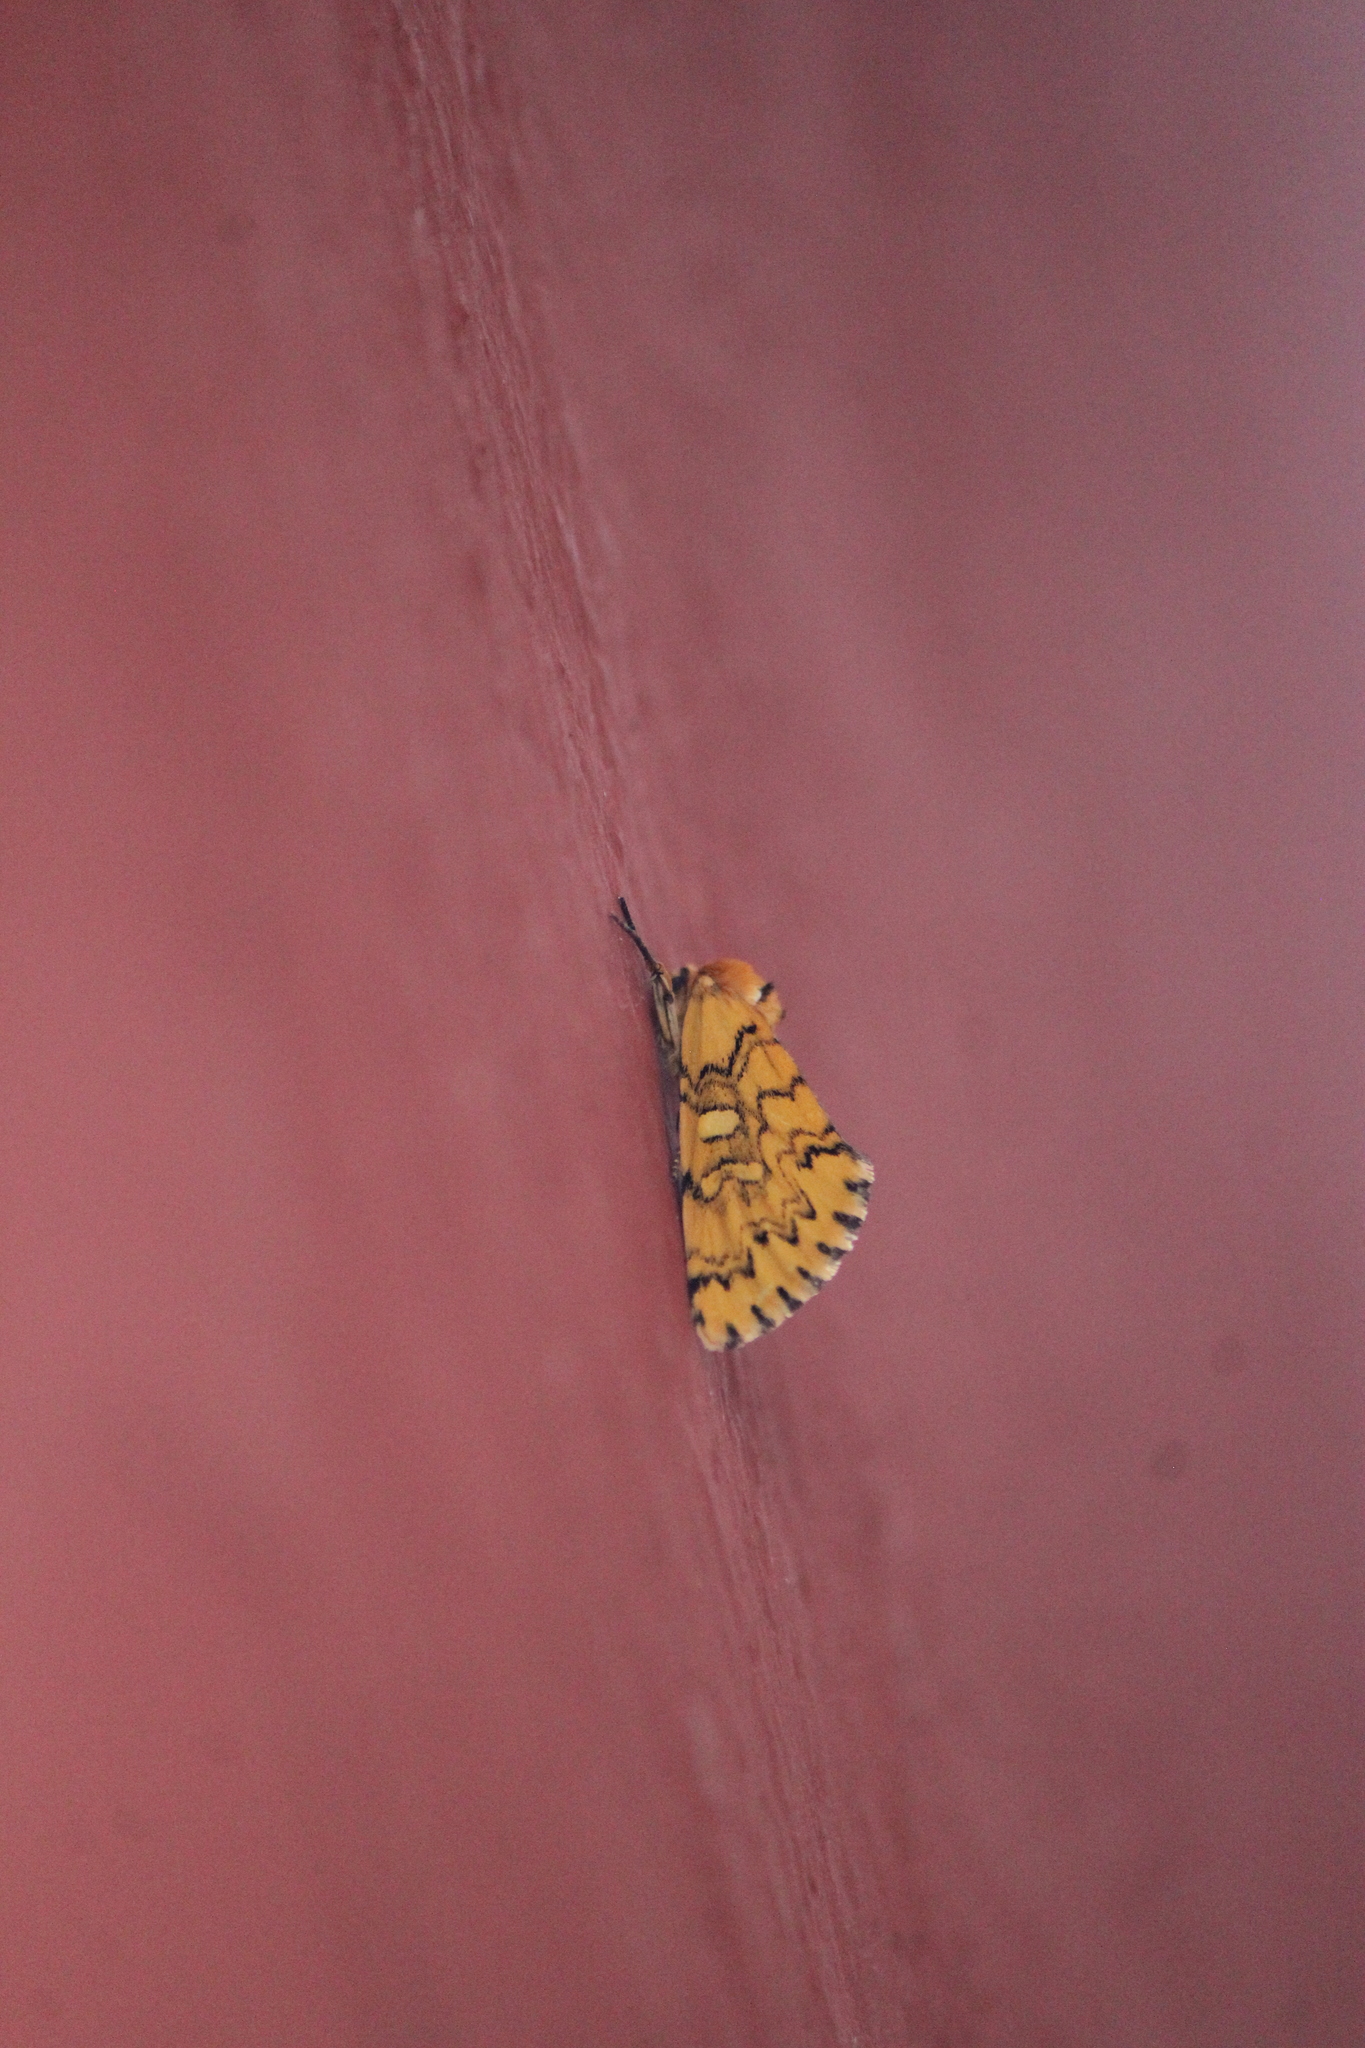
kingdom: Animalia
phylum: Arthropoda
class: Insecta
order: Lepidoptera
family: Noctuidae
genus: Chrysoecia
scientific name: Chrysoecia
